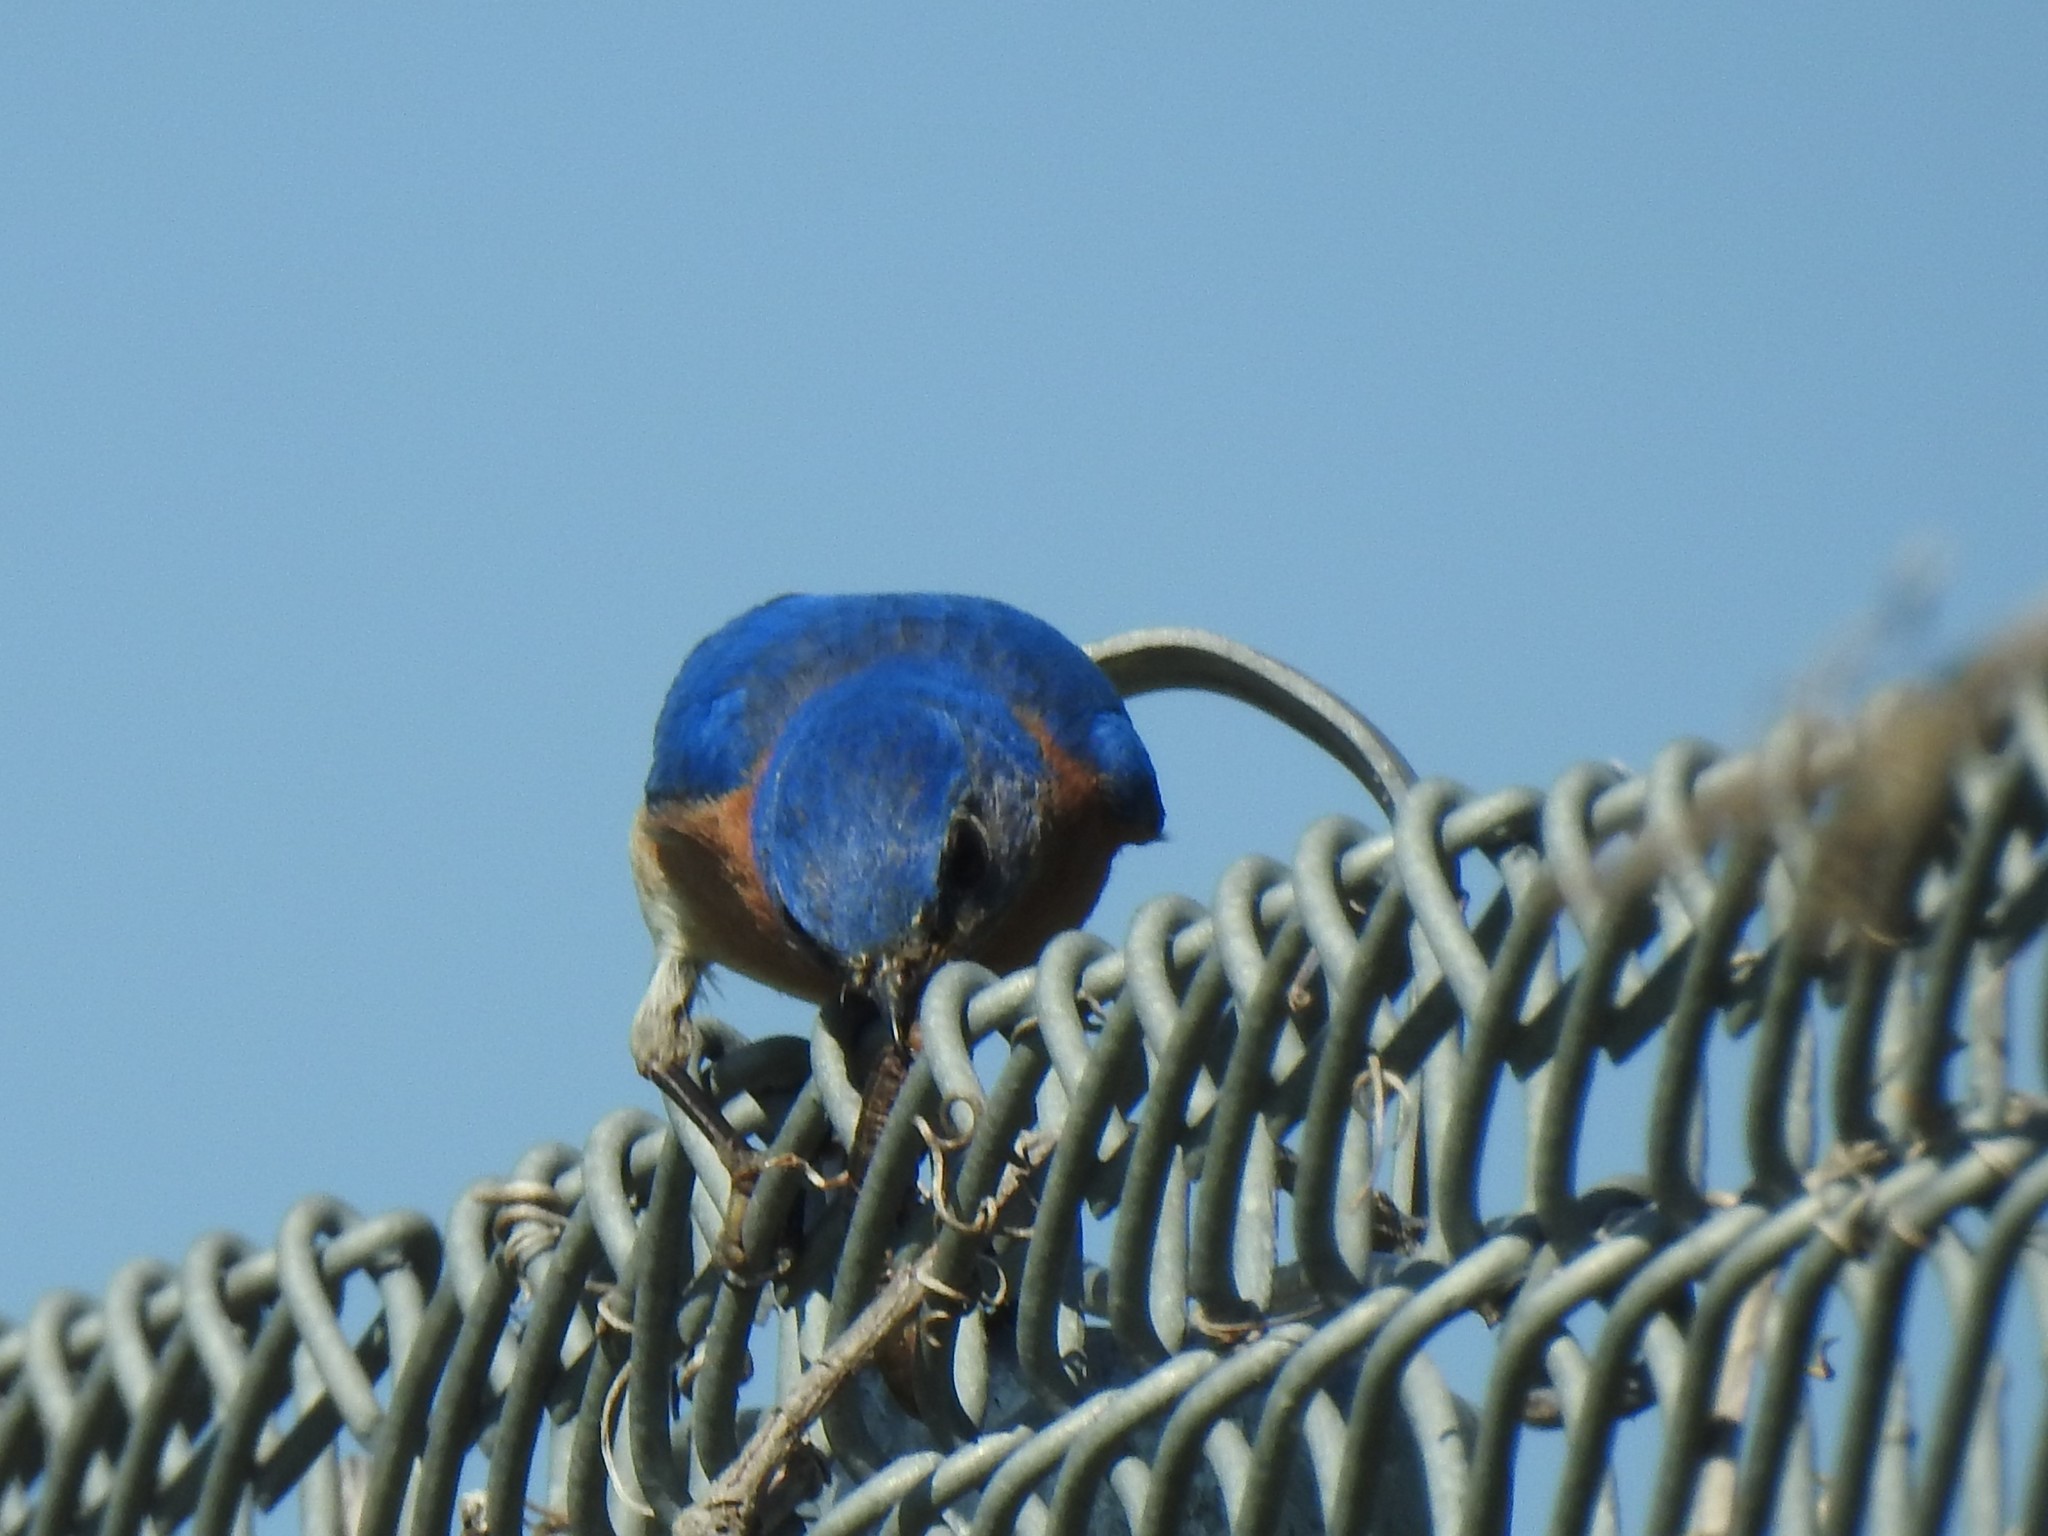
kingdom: Animalia
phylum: Chordata
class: Aves
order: Passeriformes
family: Turdidae
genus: Sialia
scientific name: Sialia sialis
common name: Eastern bluebird
